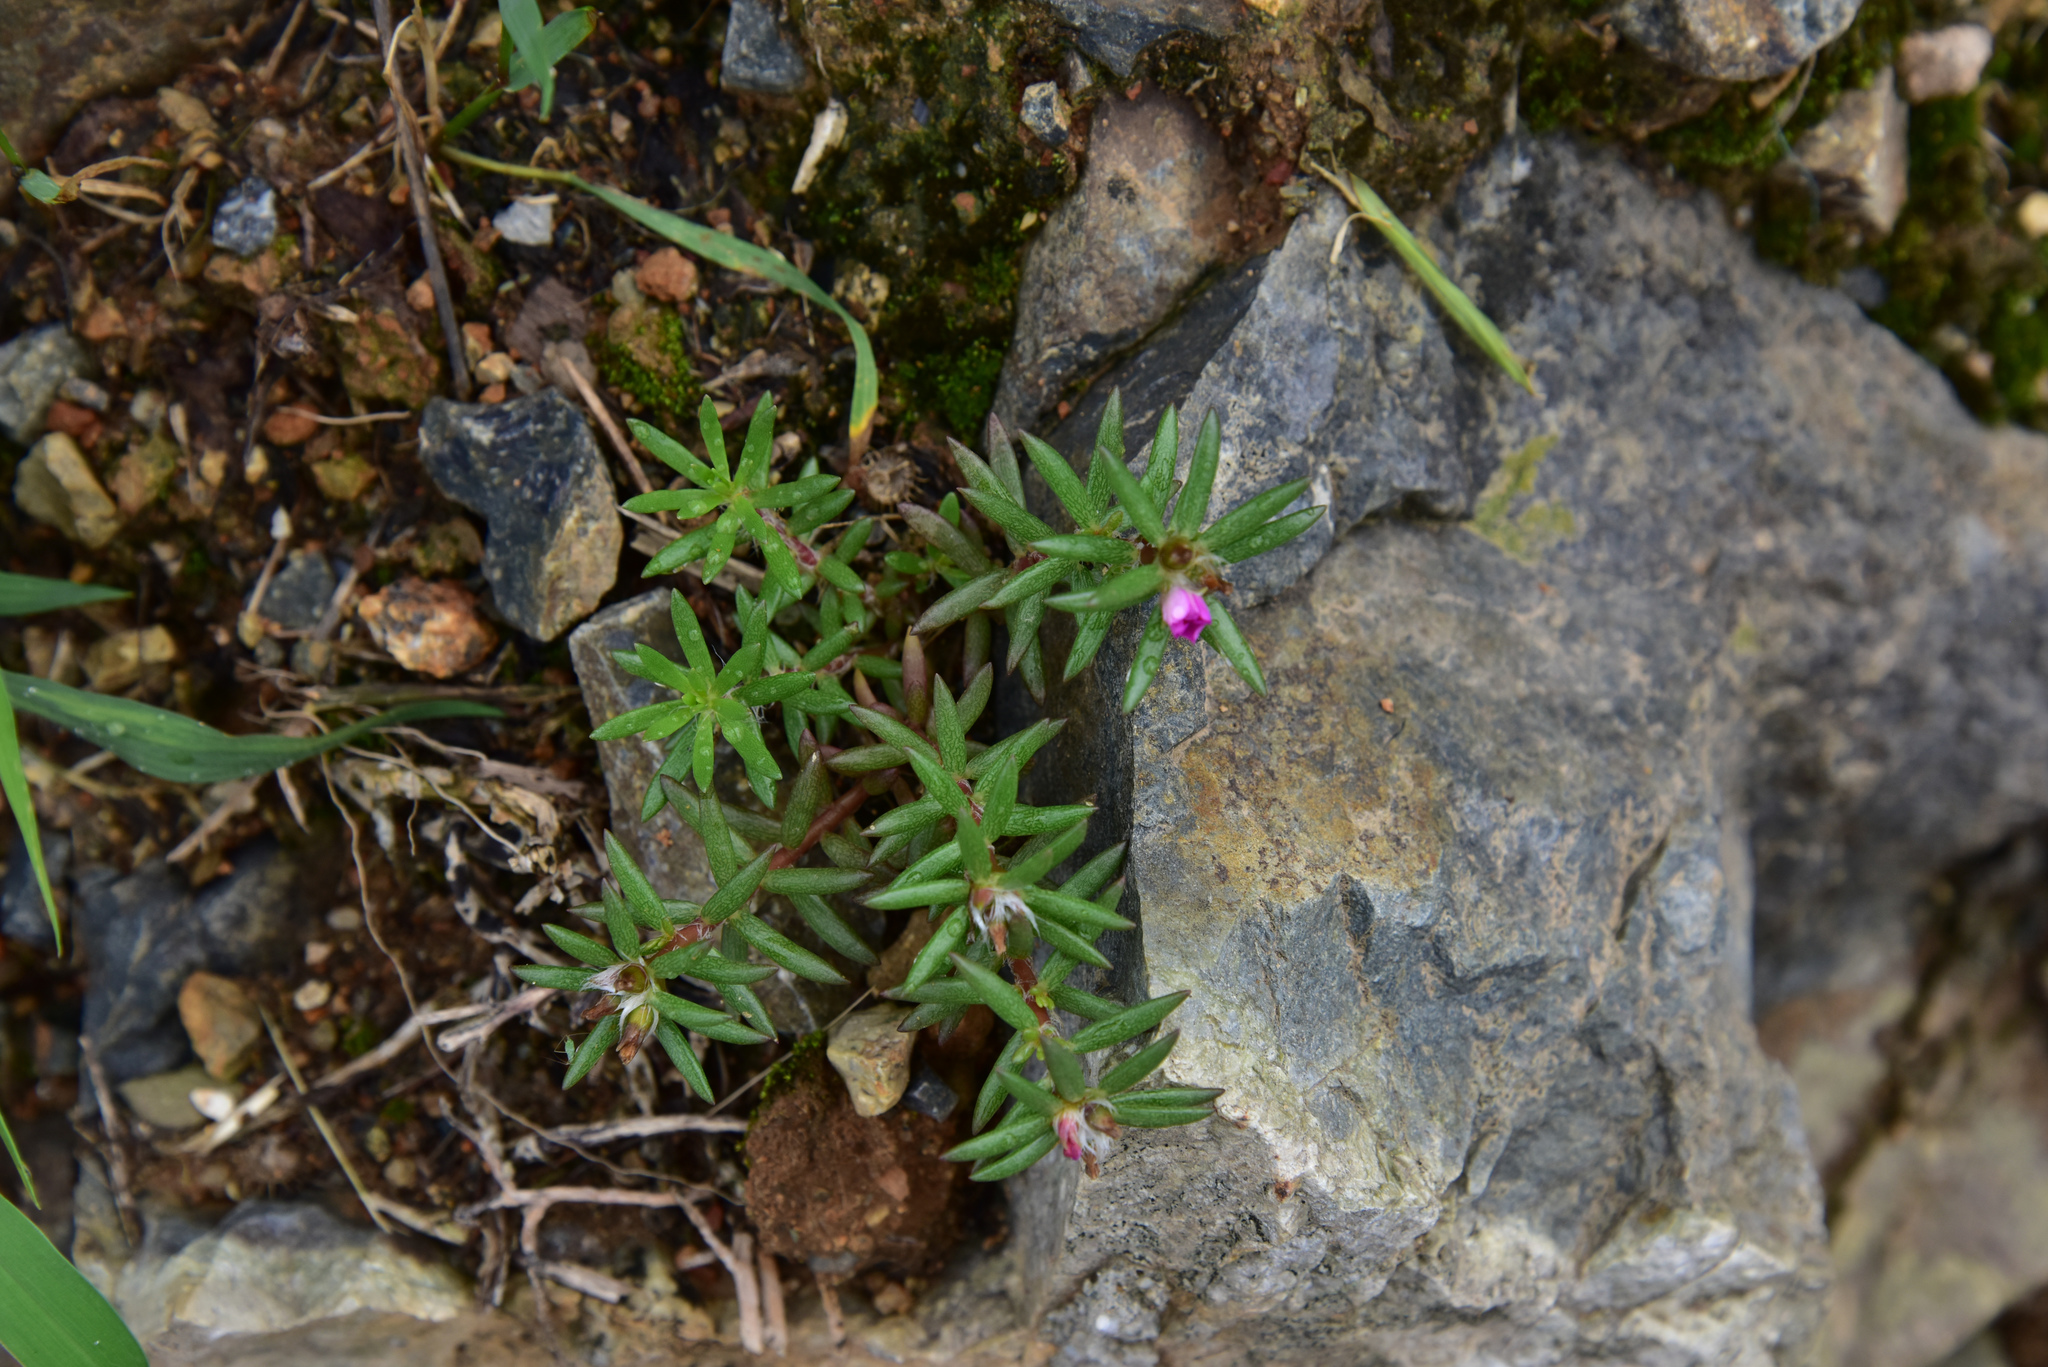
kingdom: Plantae
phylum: Tracheophyta
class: Magnoliopsida
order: Caryophyllales
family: Portulacaceae
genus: Portulaca
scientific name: Portulaca pilosa
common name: Kiss me quick
